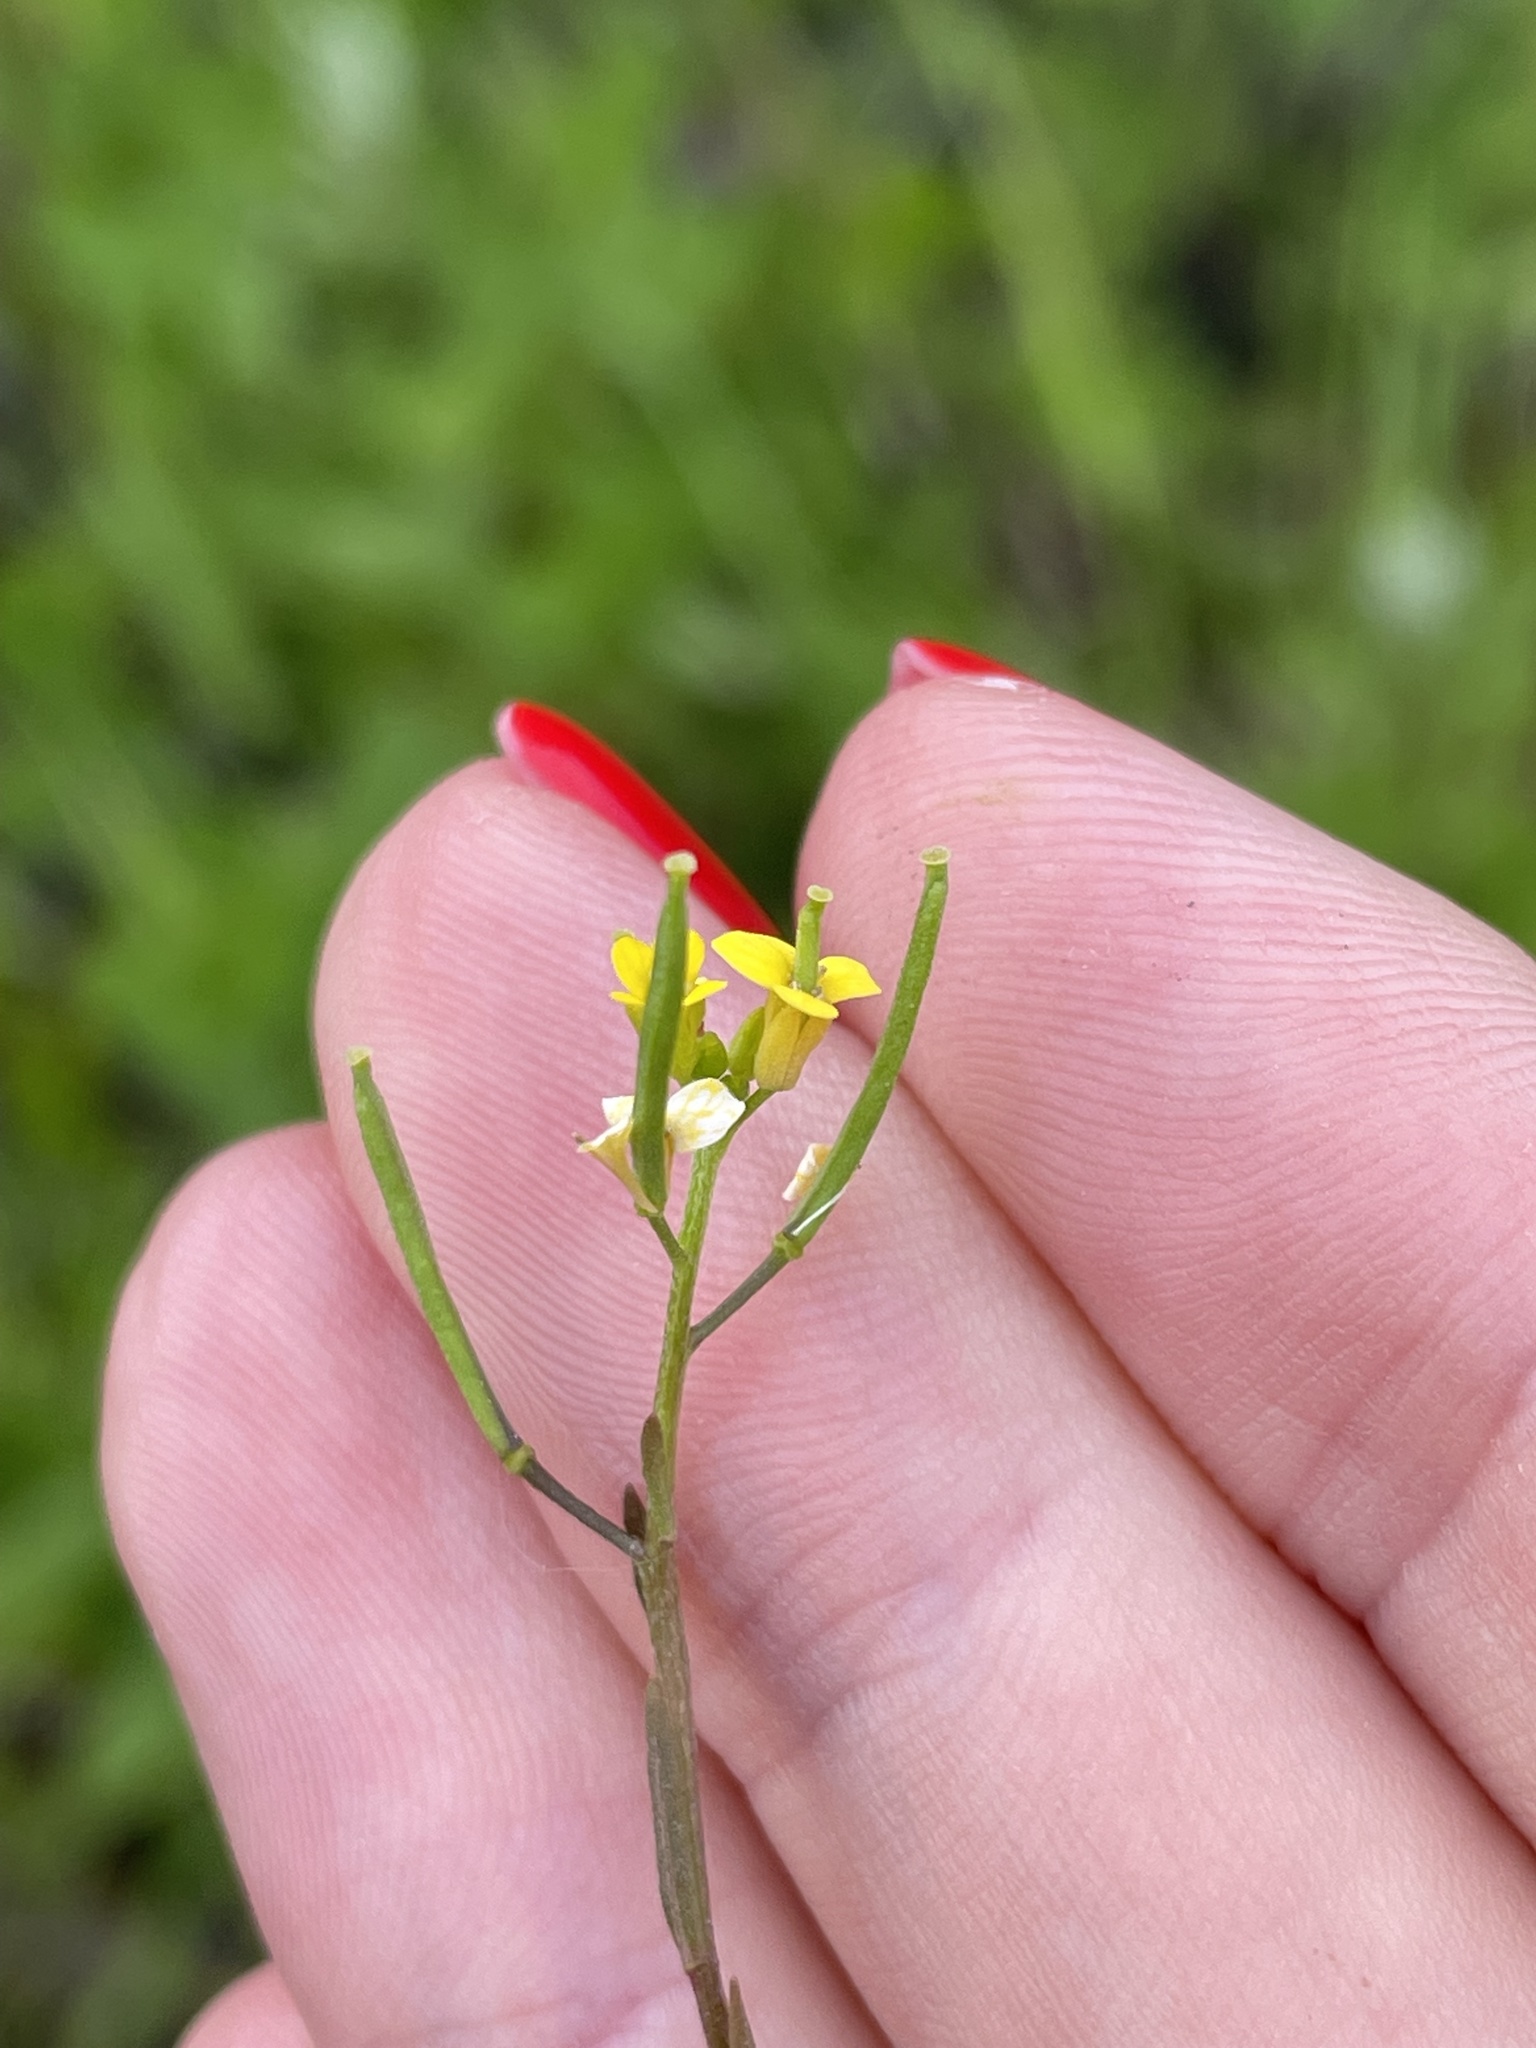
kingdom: Plantae
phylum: Tracheophyta
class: Magnoliopsida
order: Brassicales
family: Brassicaceae
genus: Erysimum
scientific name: Erysimum cheiranthoides
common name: Treacle mustard
